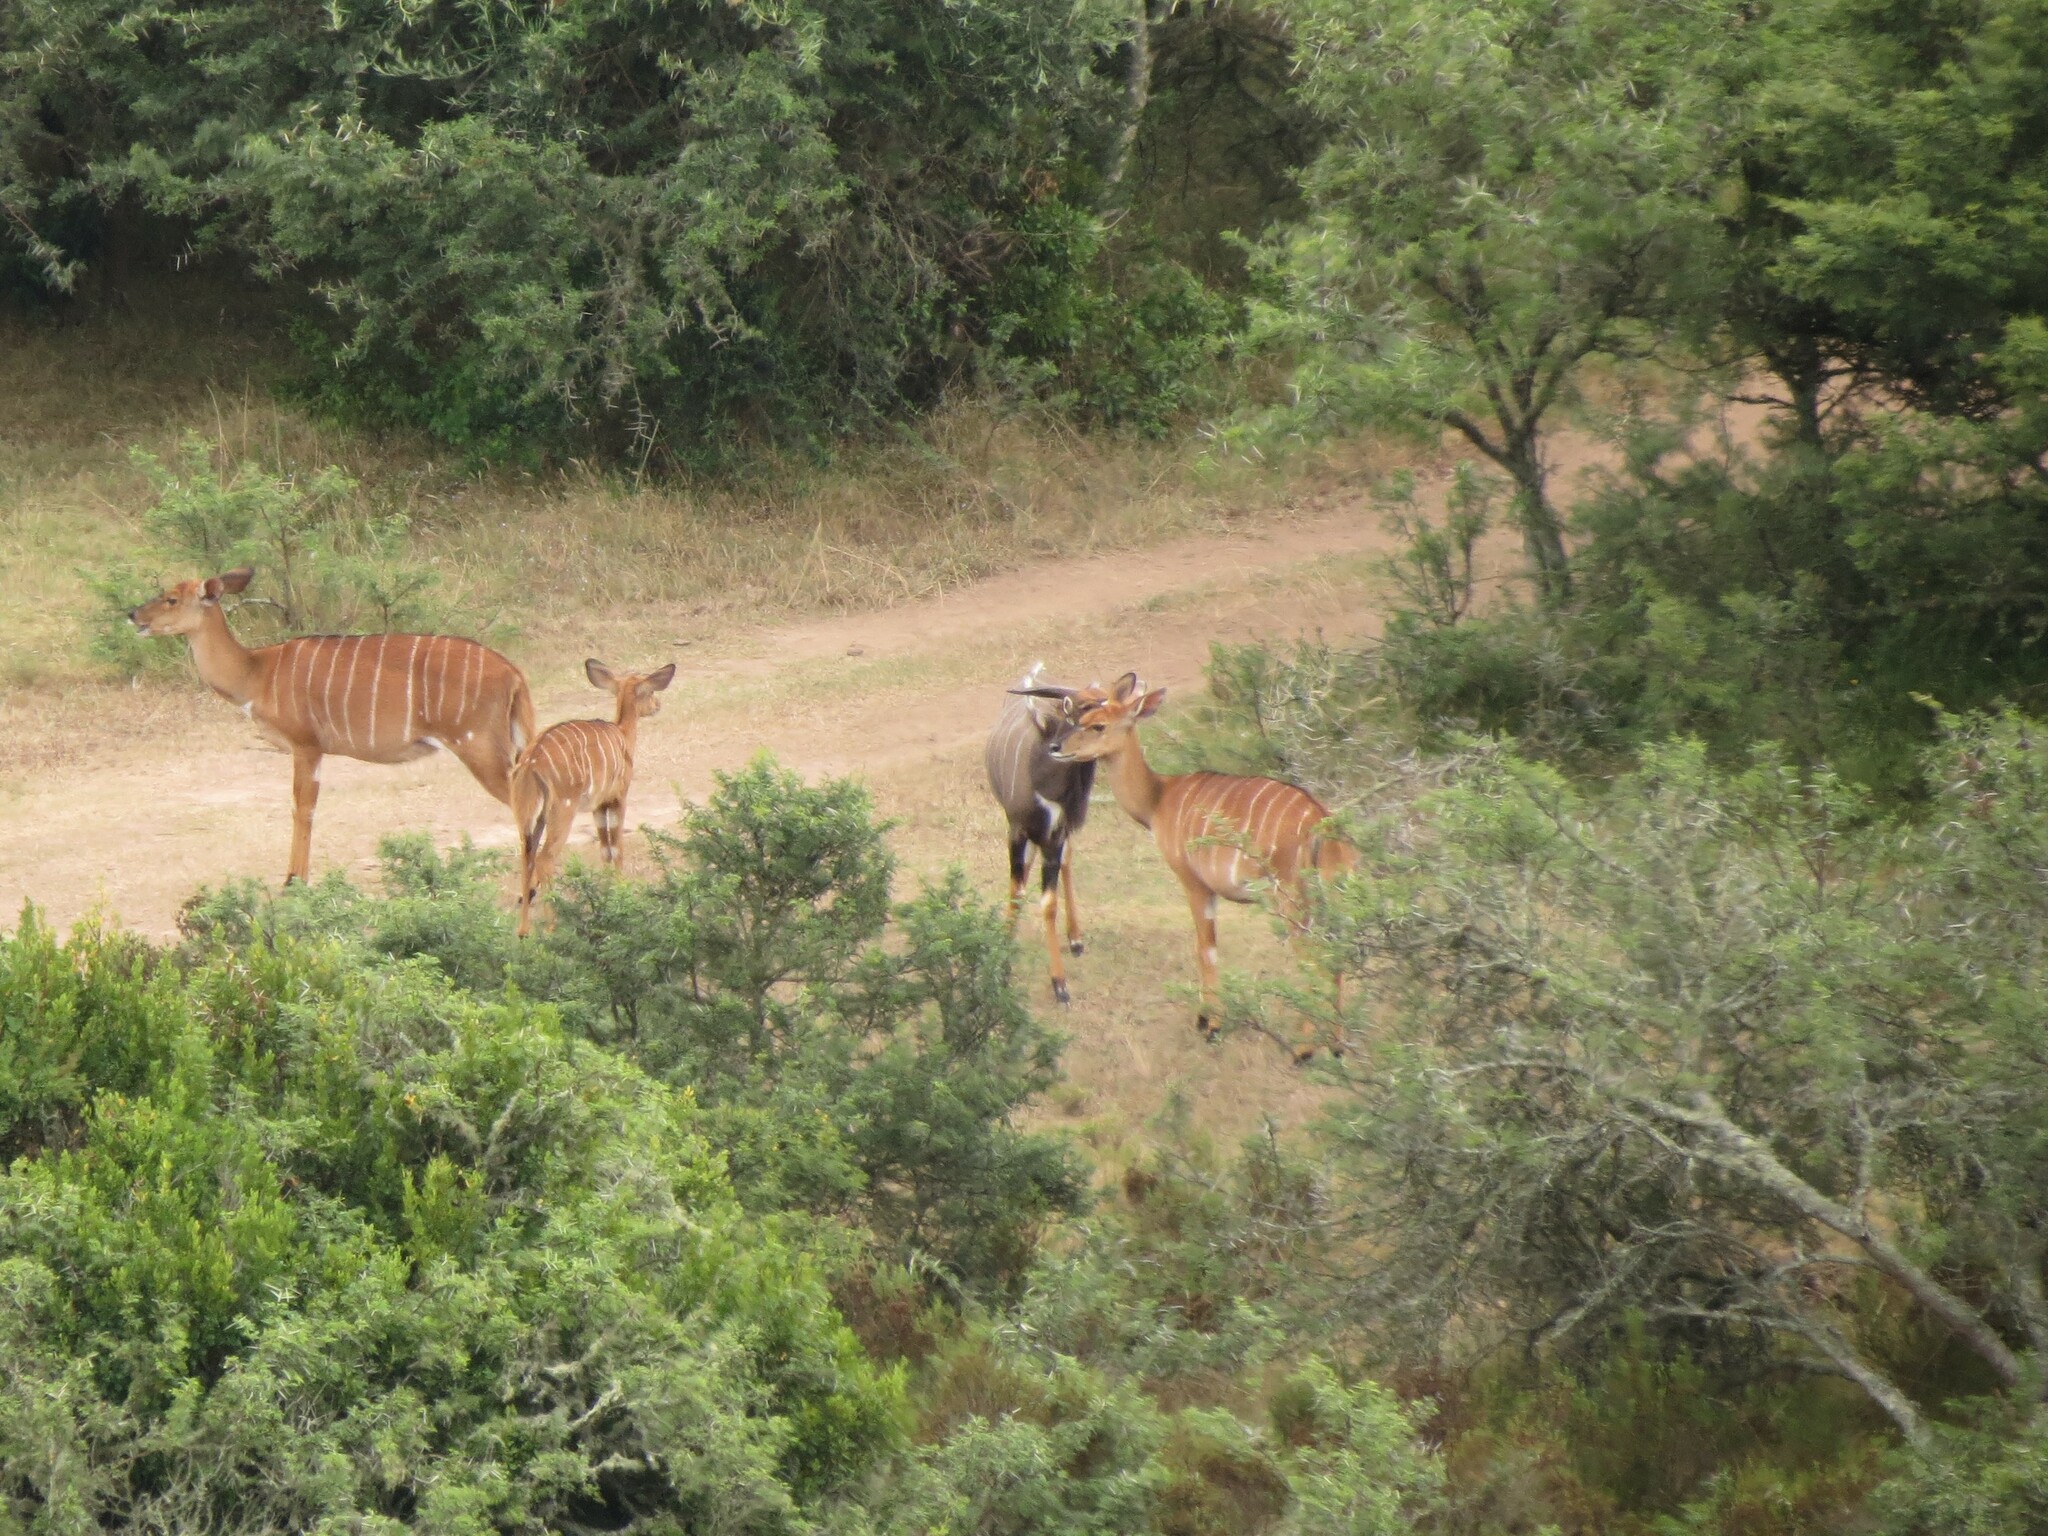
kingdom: Animalia
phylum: Chordata
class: Mammalia
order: Artiodactyla
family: Bovidae
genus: Tragelaphus
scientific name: Tragelaphus angasii
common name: Nyala
